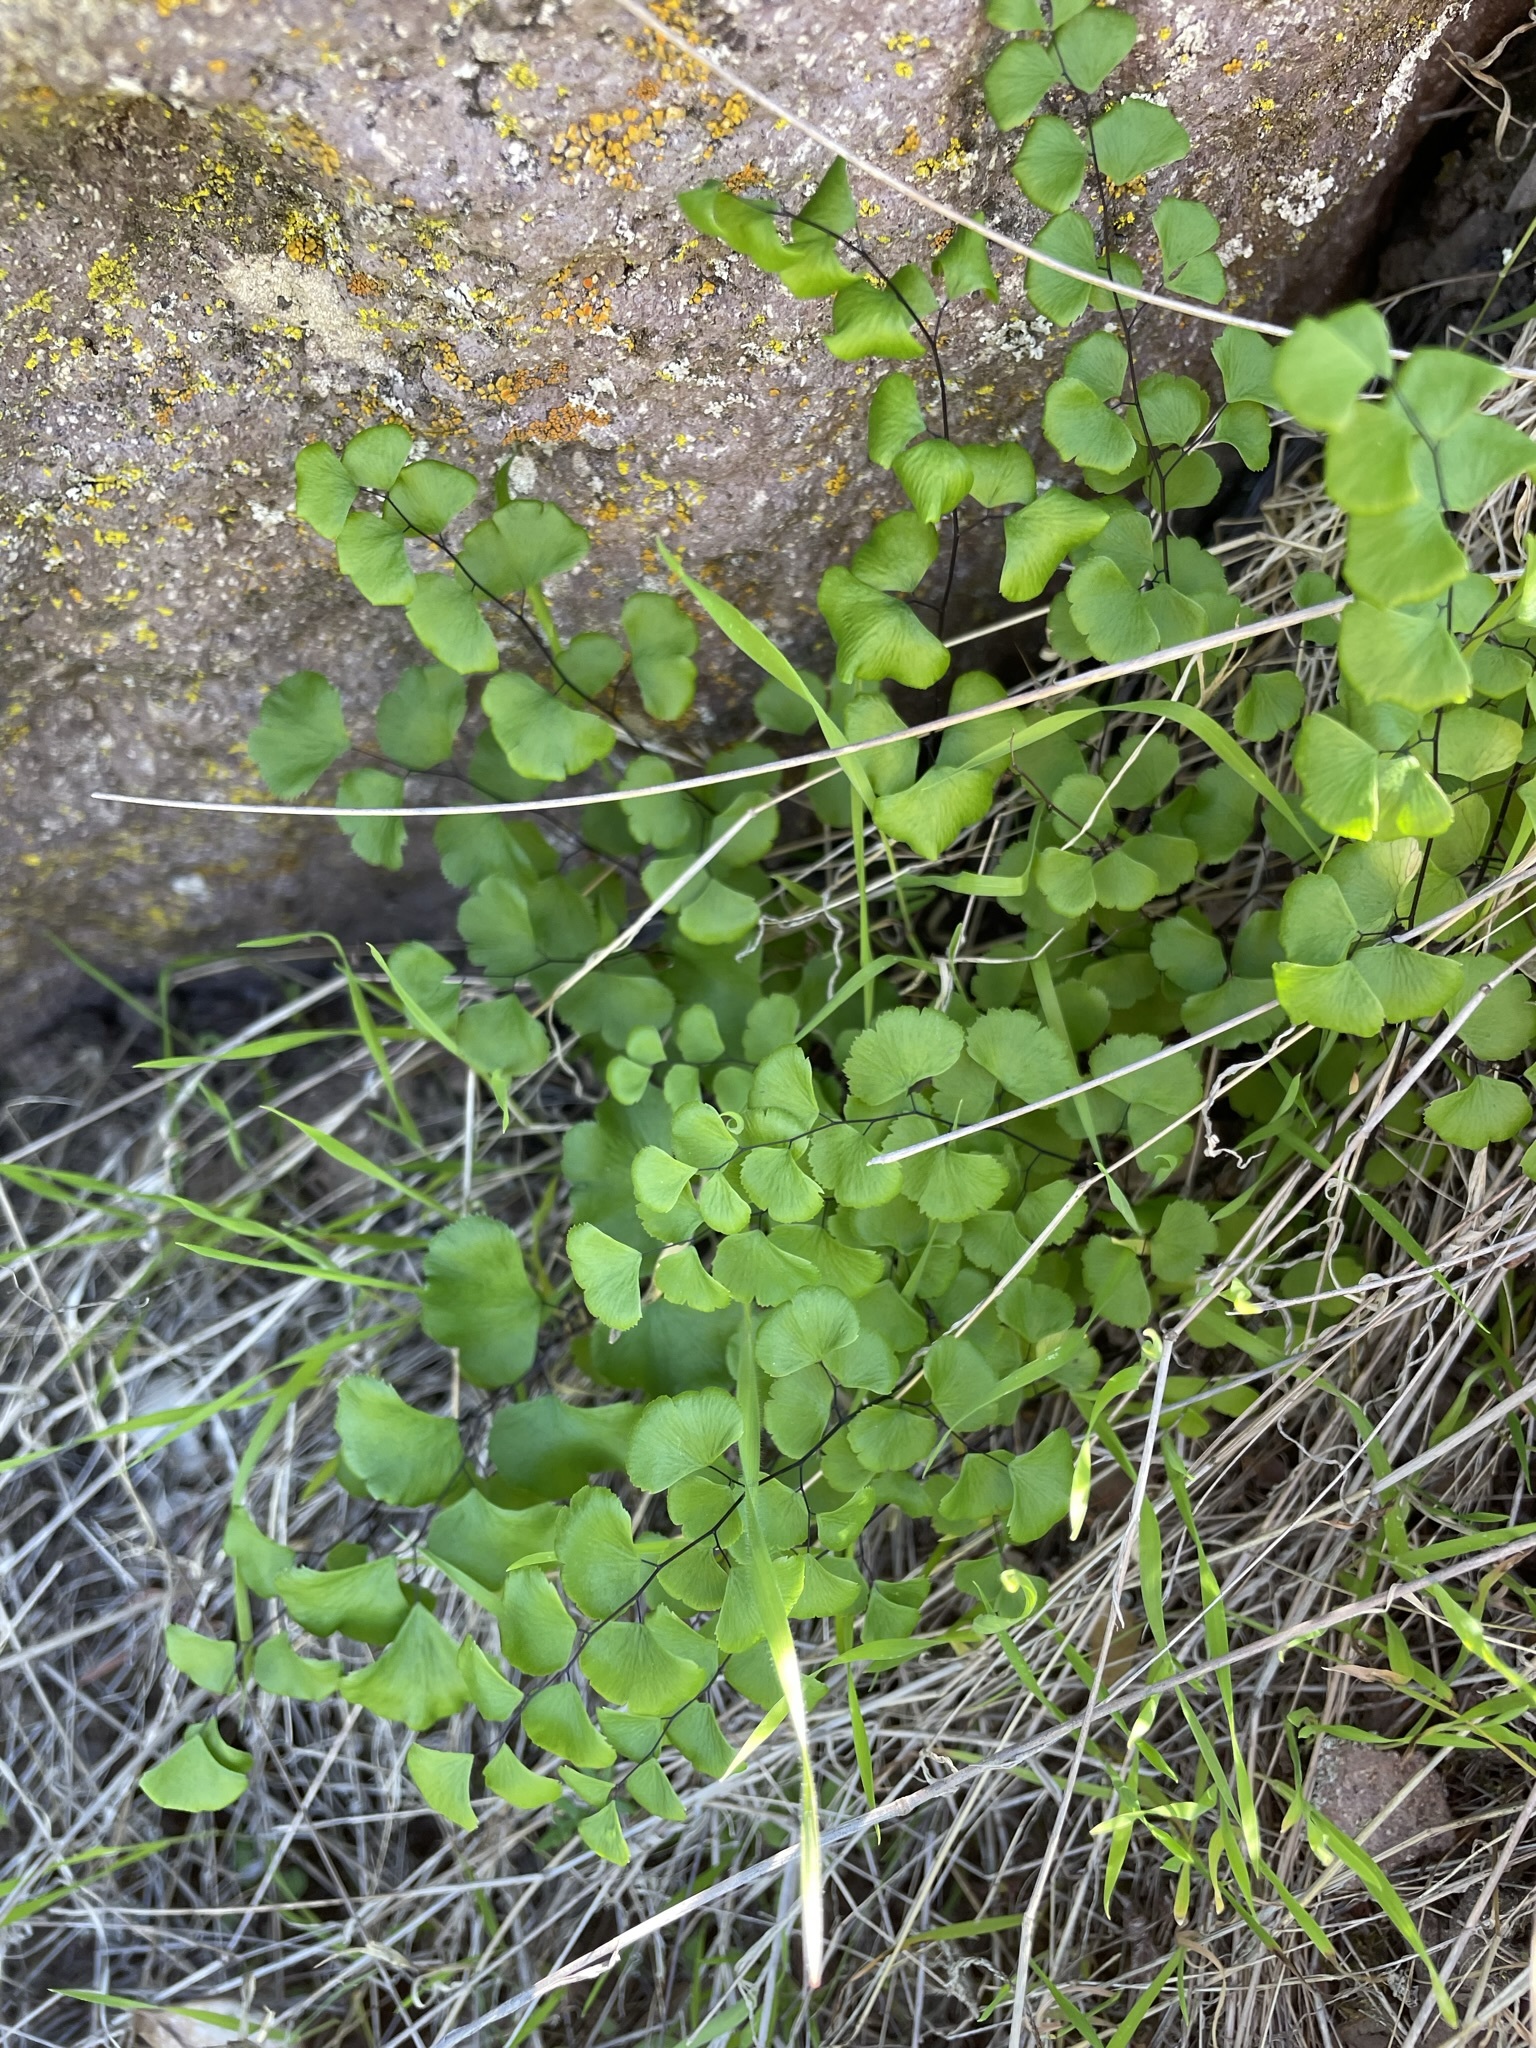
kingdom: Plantae
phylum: Tracheophyta
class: Polypodiopsida
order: Polypodiales
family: Pteridaceae
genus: Adiantum
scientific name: Adiantum jordanii
